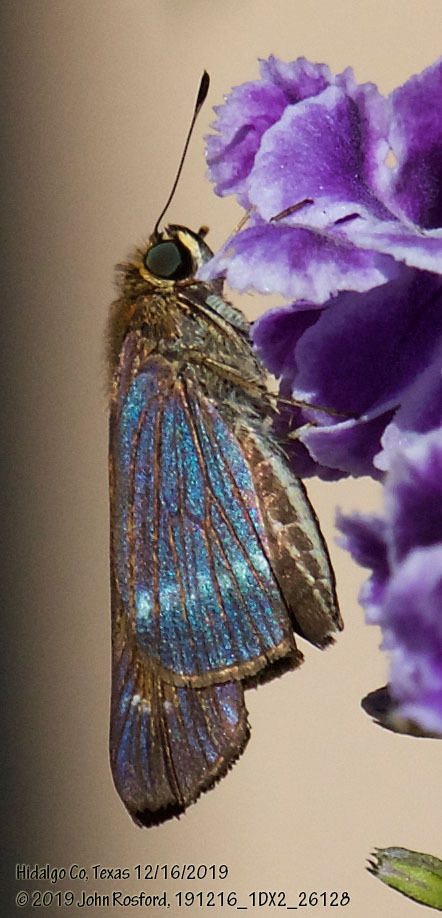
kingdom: Animalia
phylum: Arthropoda
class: Insecta
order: Lepidoptera
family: Hesperiidae
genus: Turesis
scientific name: Turesis lucas
